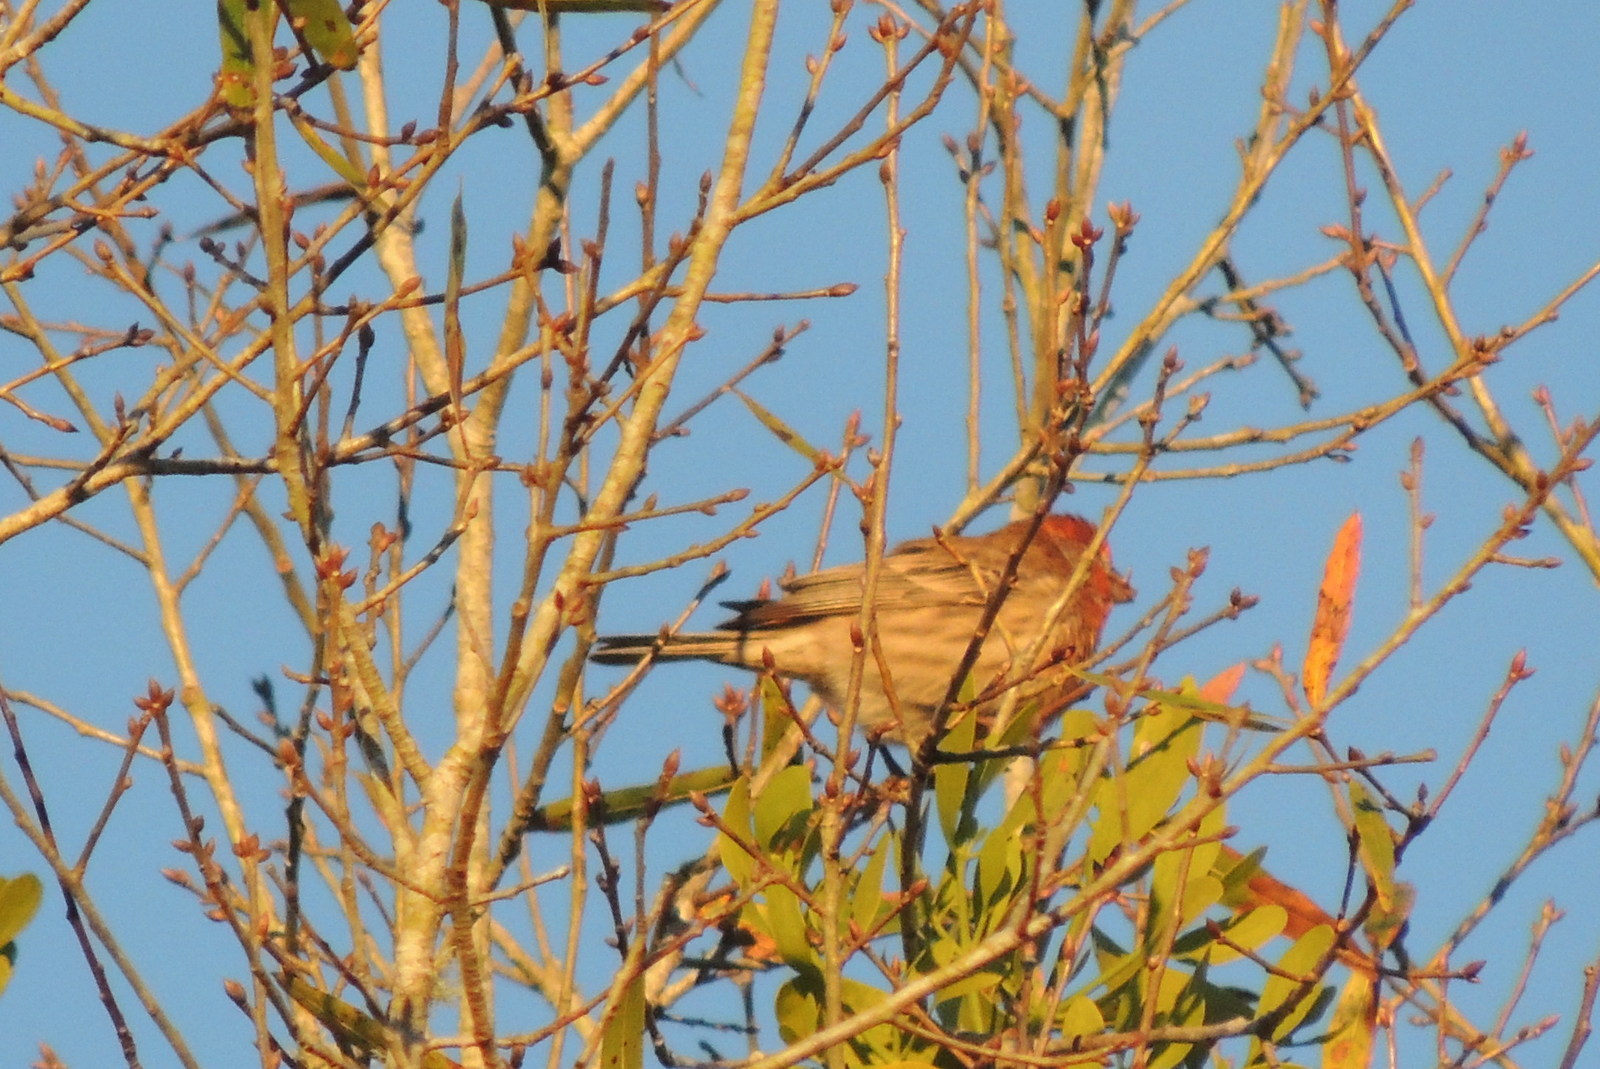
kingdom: Animalia
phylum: Chordata
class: Aves
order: Passeriformes
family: Fringillidae
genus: Haemorhous
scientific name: Haemorhous mexicanus
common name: House finch
